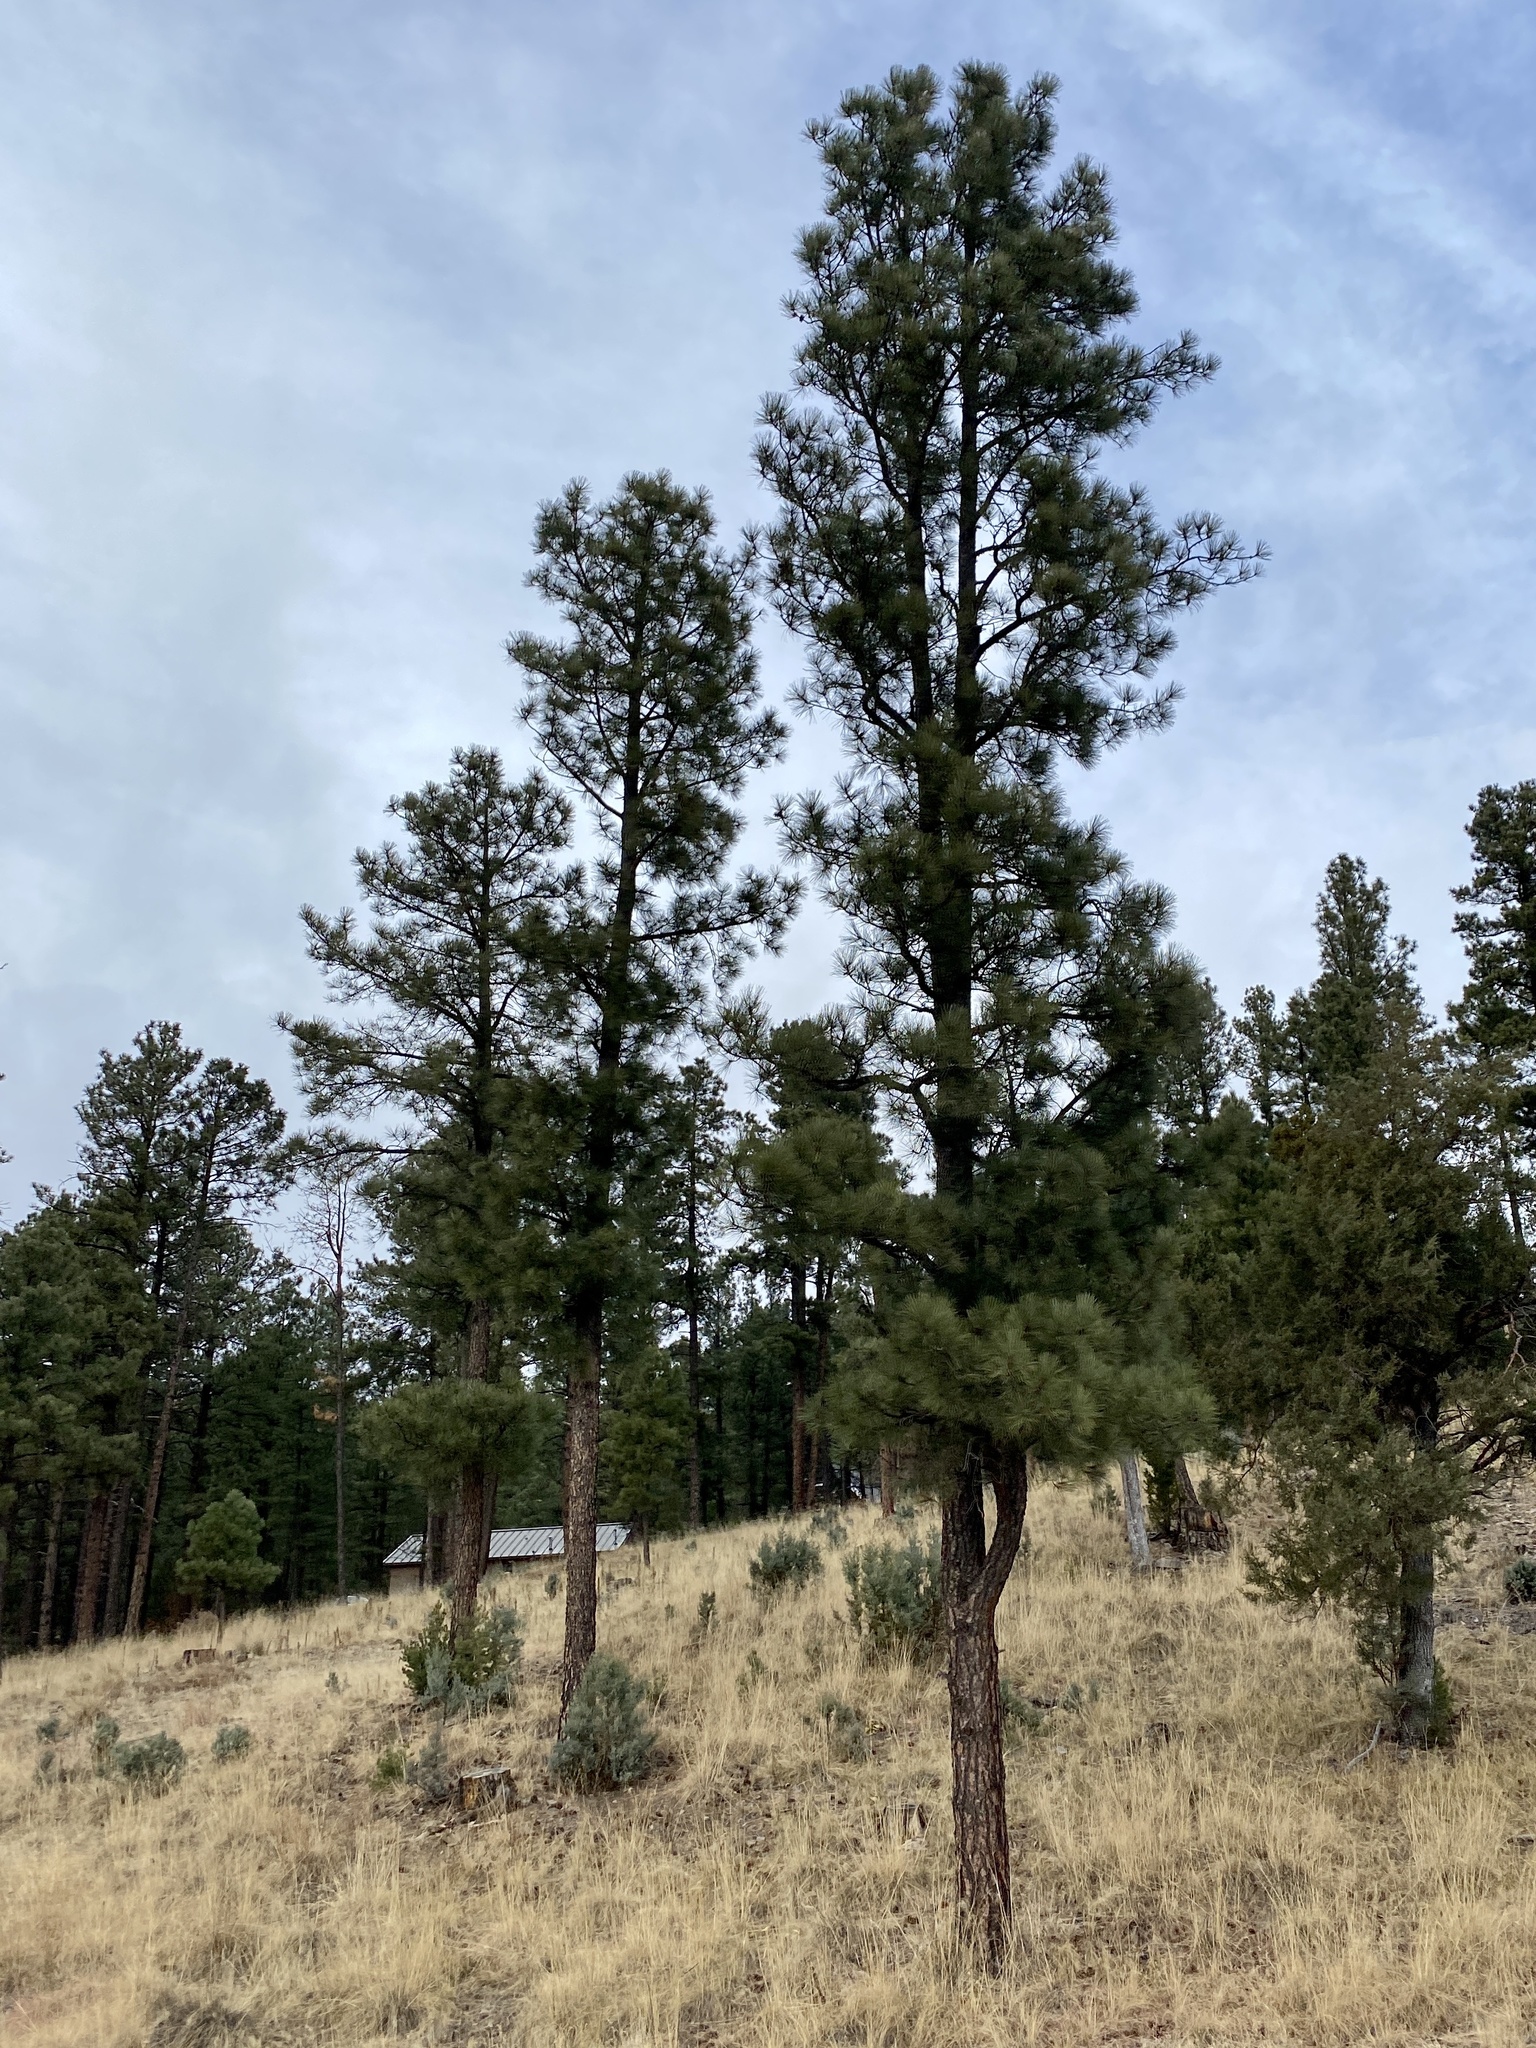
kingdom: Plantae
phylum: Tracheophyta
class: Pinopsida
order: Pinales
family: Pinaceae
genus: Pinus
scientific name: Pinus ponderosa
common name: Western yellow-pine
